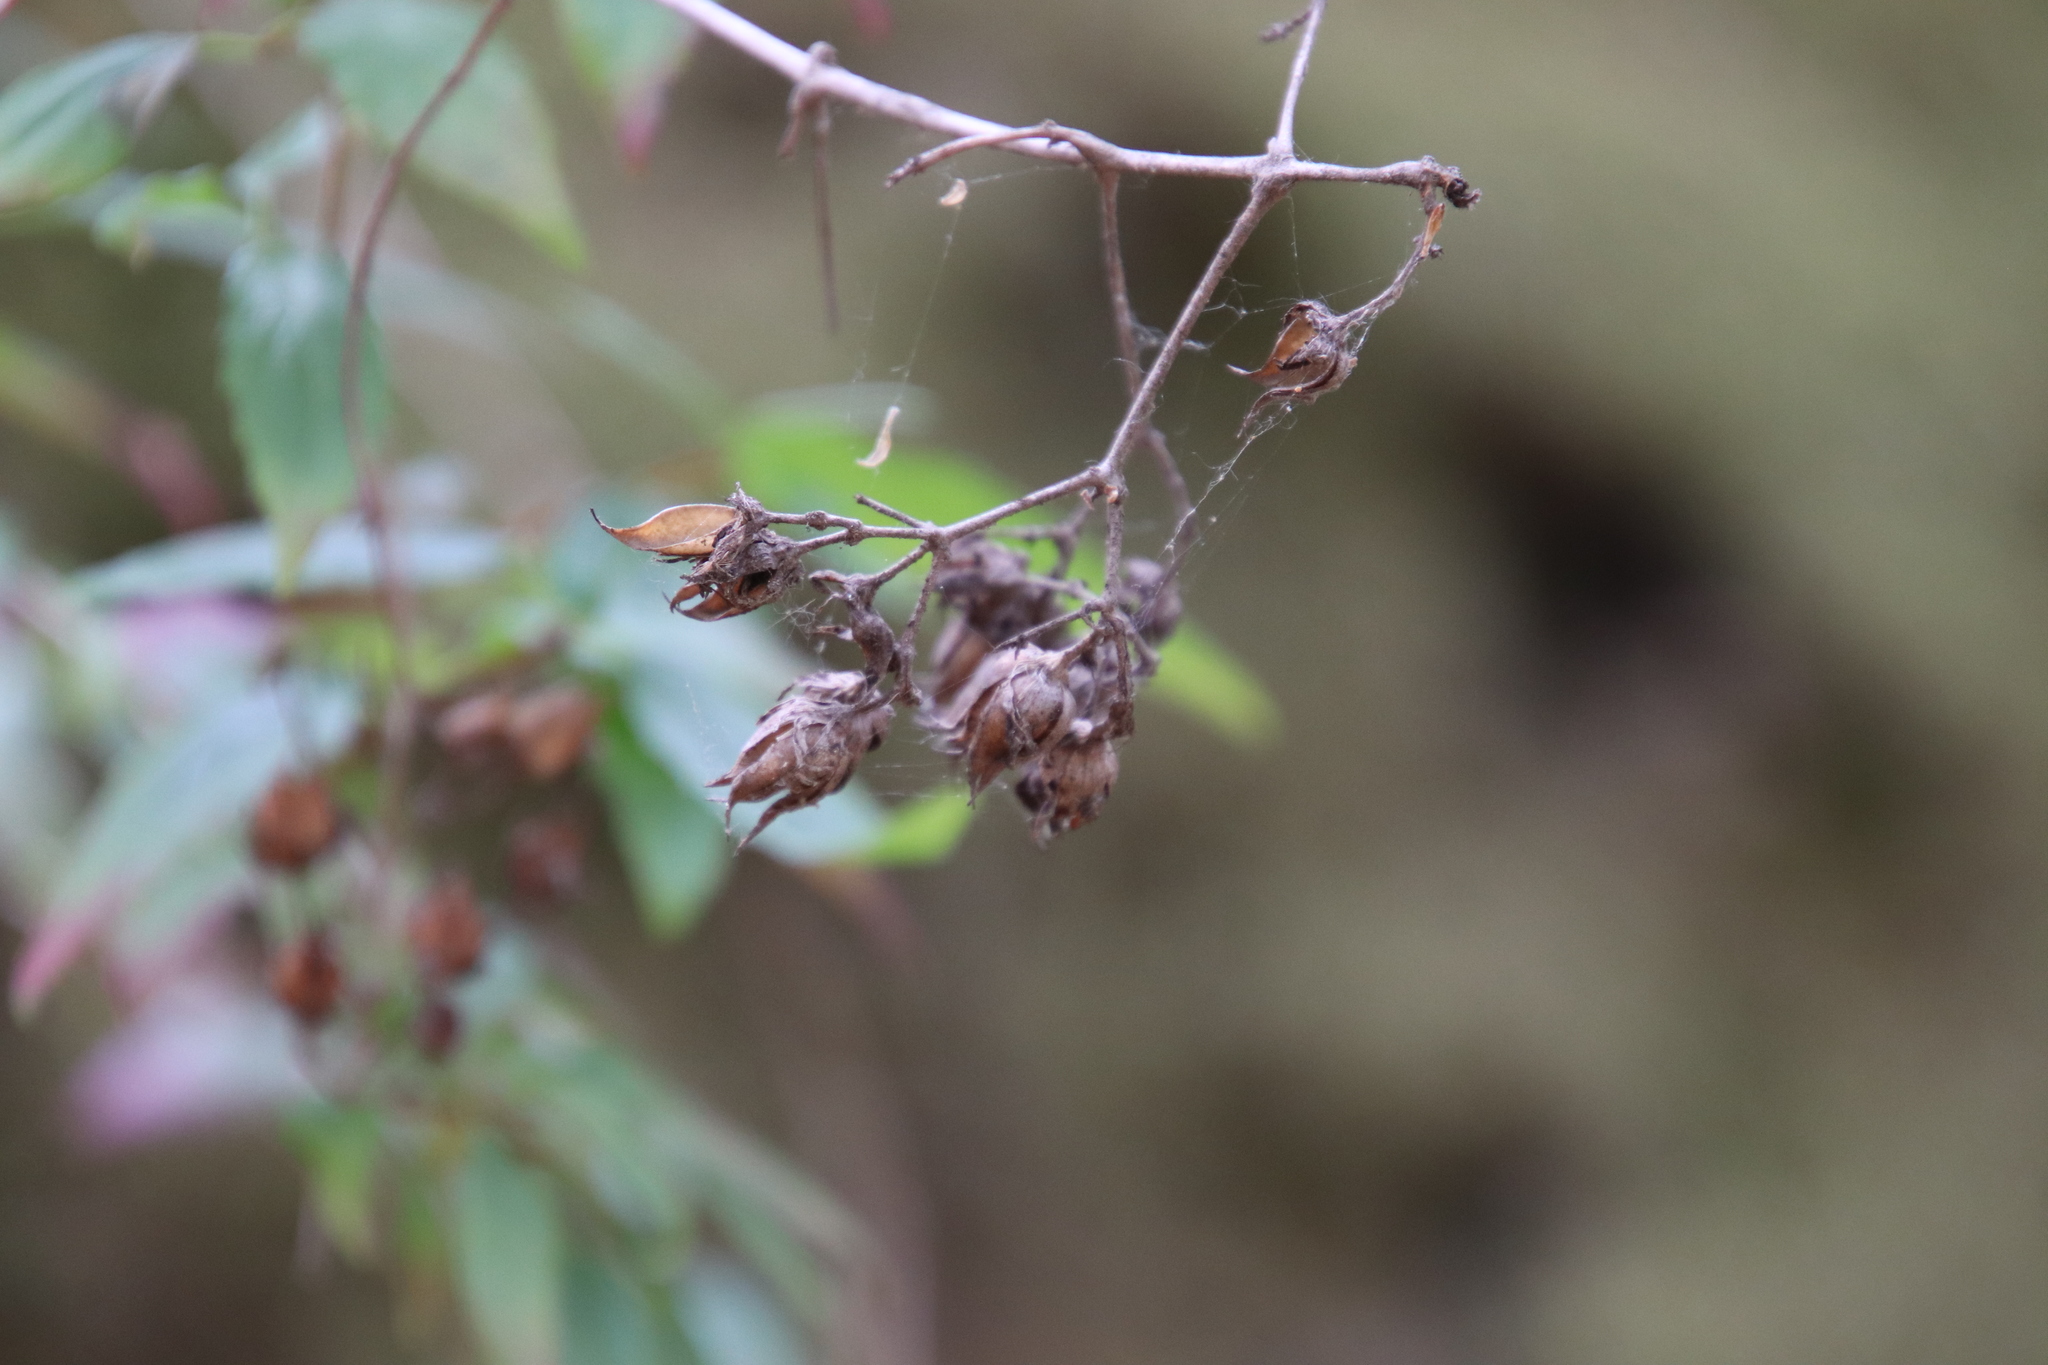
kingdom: Plantae
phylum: Tracheophyta
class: Magnoliopsida
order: Lamiales
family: Plantaginaceae
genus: Keckiella
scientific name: Keckiella cordifolia
